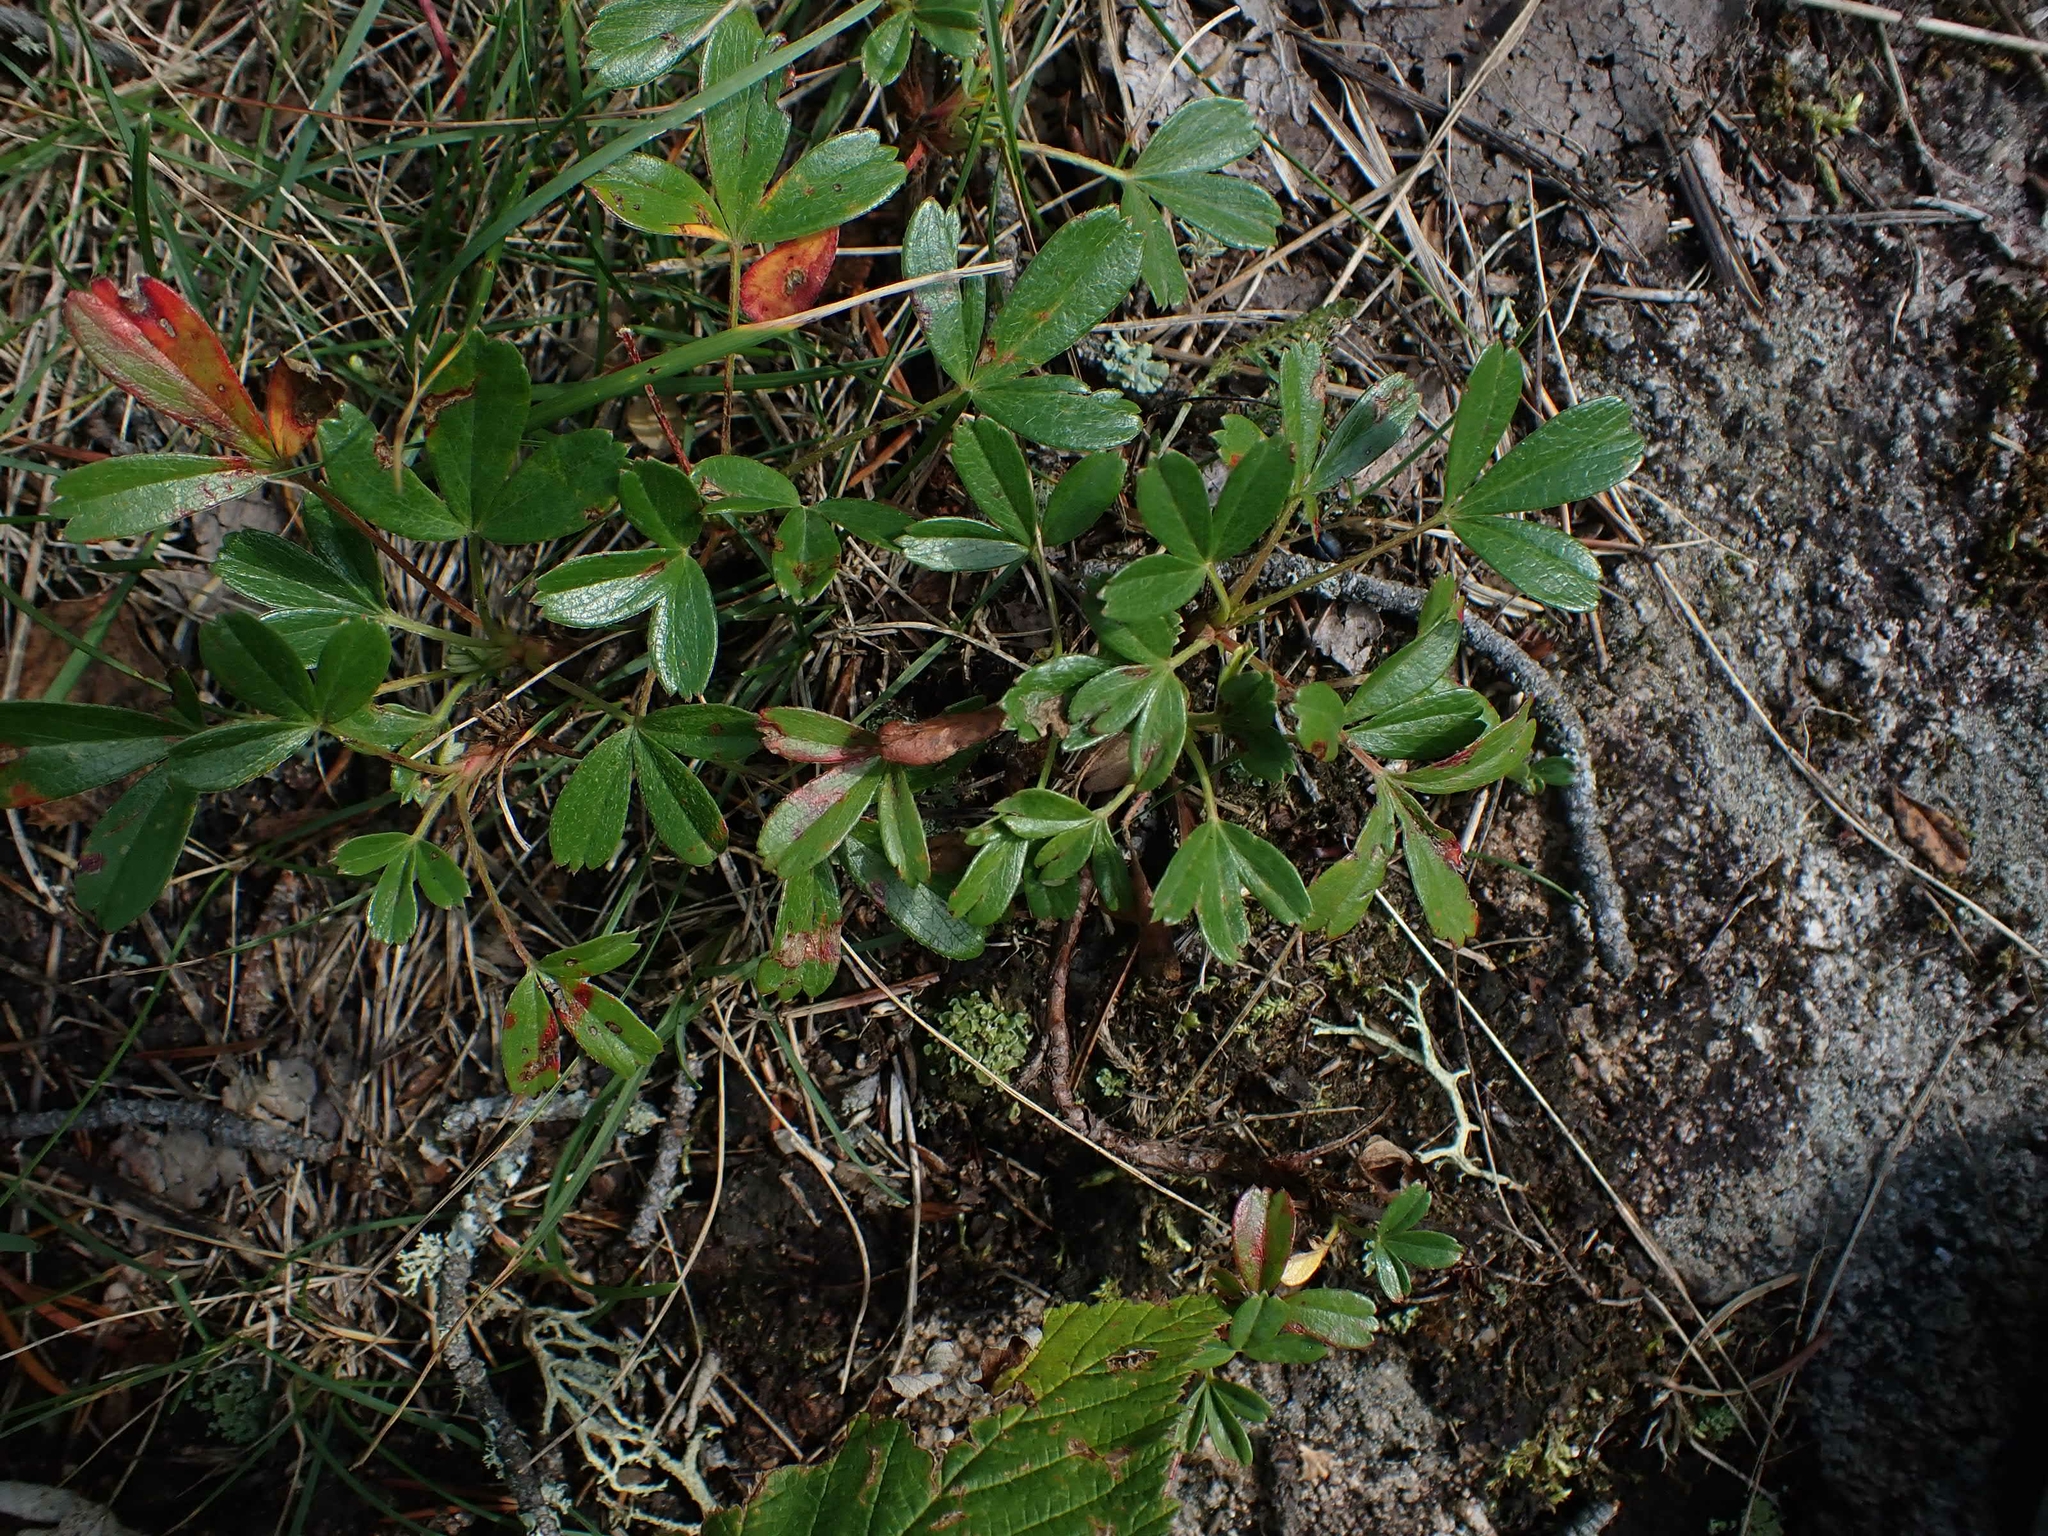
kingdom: Plantae
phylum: Tracheophyta
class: Magnoliopsida
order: Rosales
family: Rosaceae
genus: Sibbaldia
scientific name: Sibbaldia tridentata
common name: Three-toothed cinquefoil
